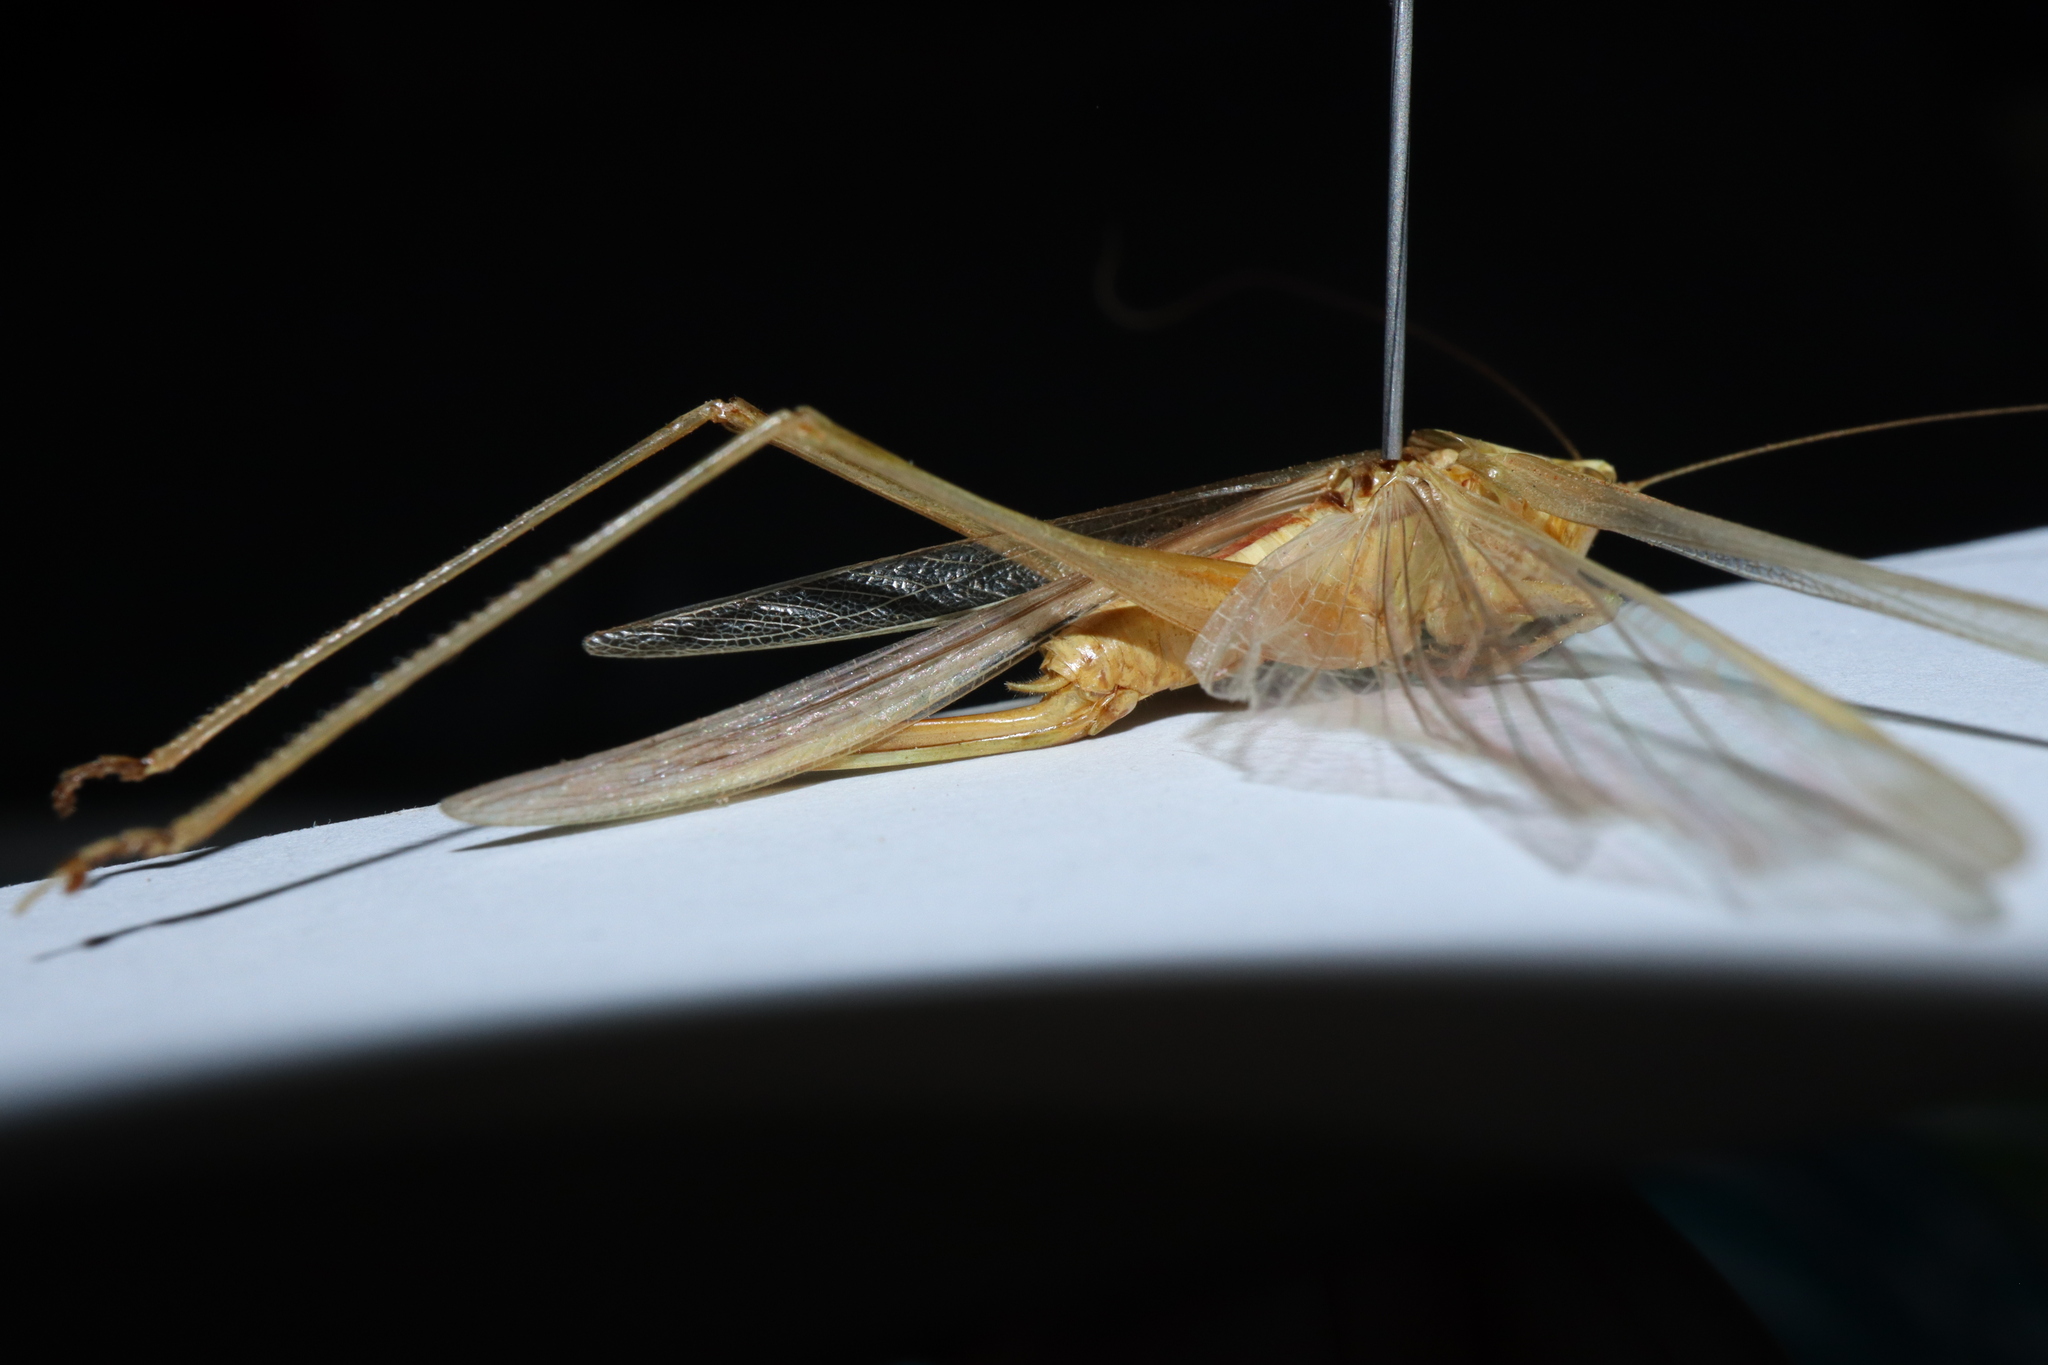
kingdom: Animalia
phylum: Arthropoda
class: Insecta
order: Orthoptera
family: Tettigoniidae
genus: Conocephalus
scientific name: Conocephalus upoluensis
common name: Upolu meadow katydid
